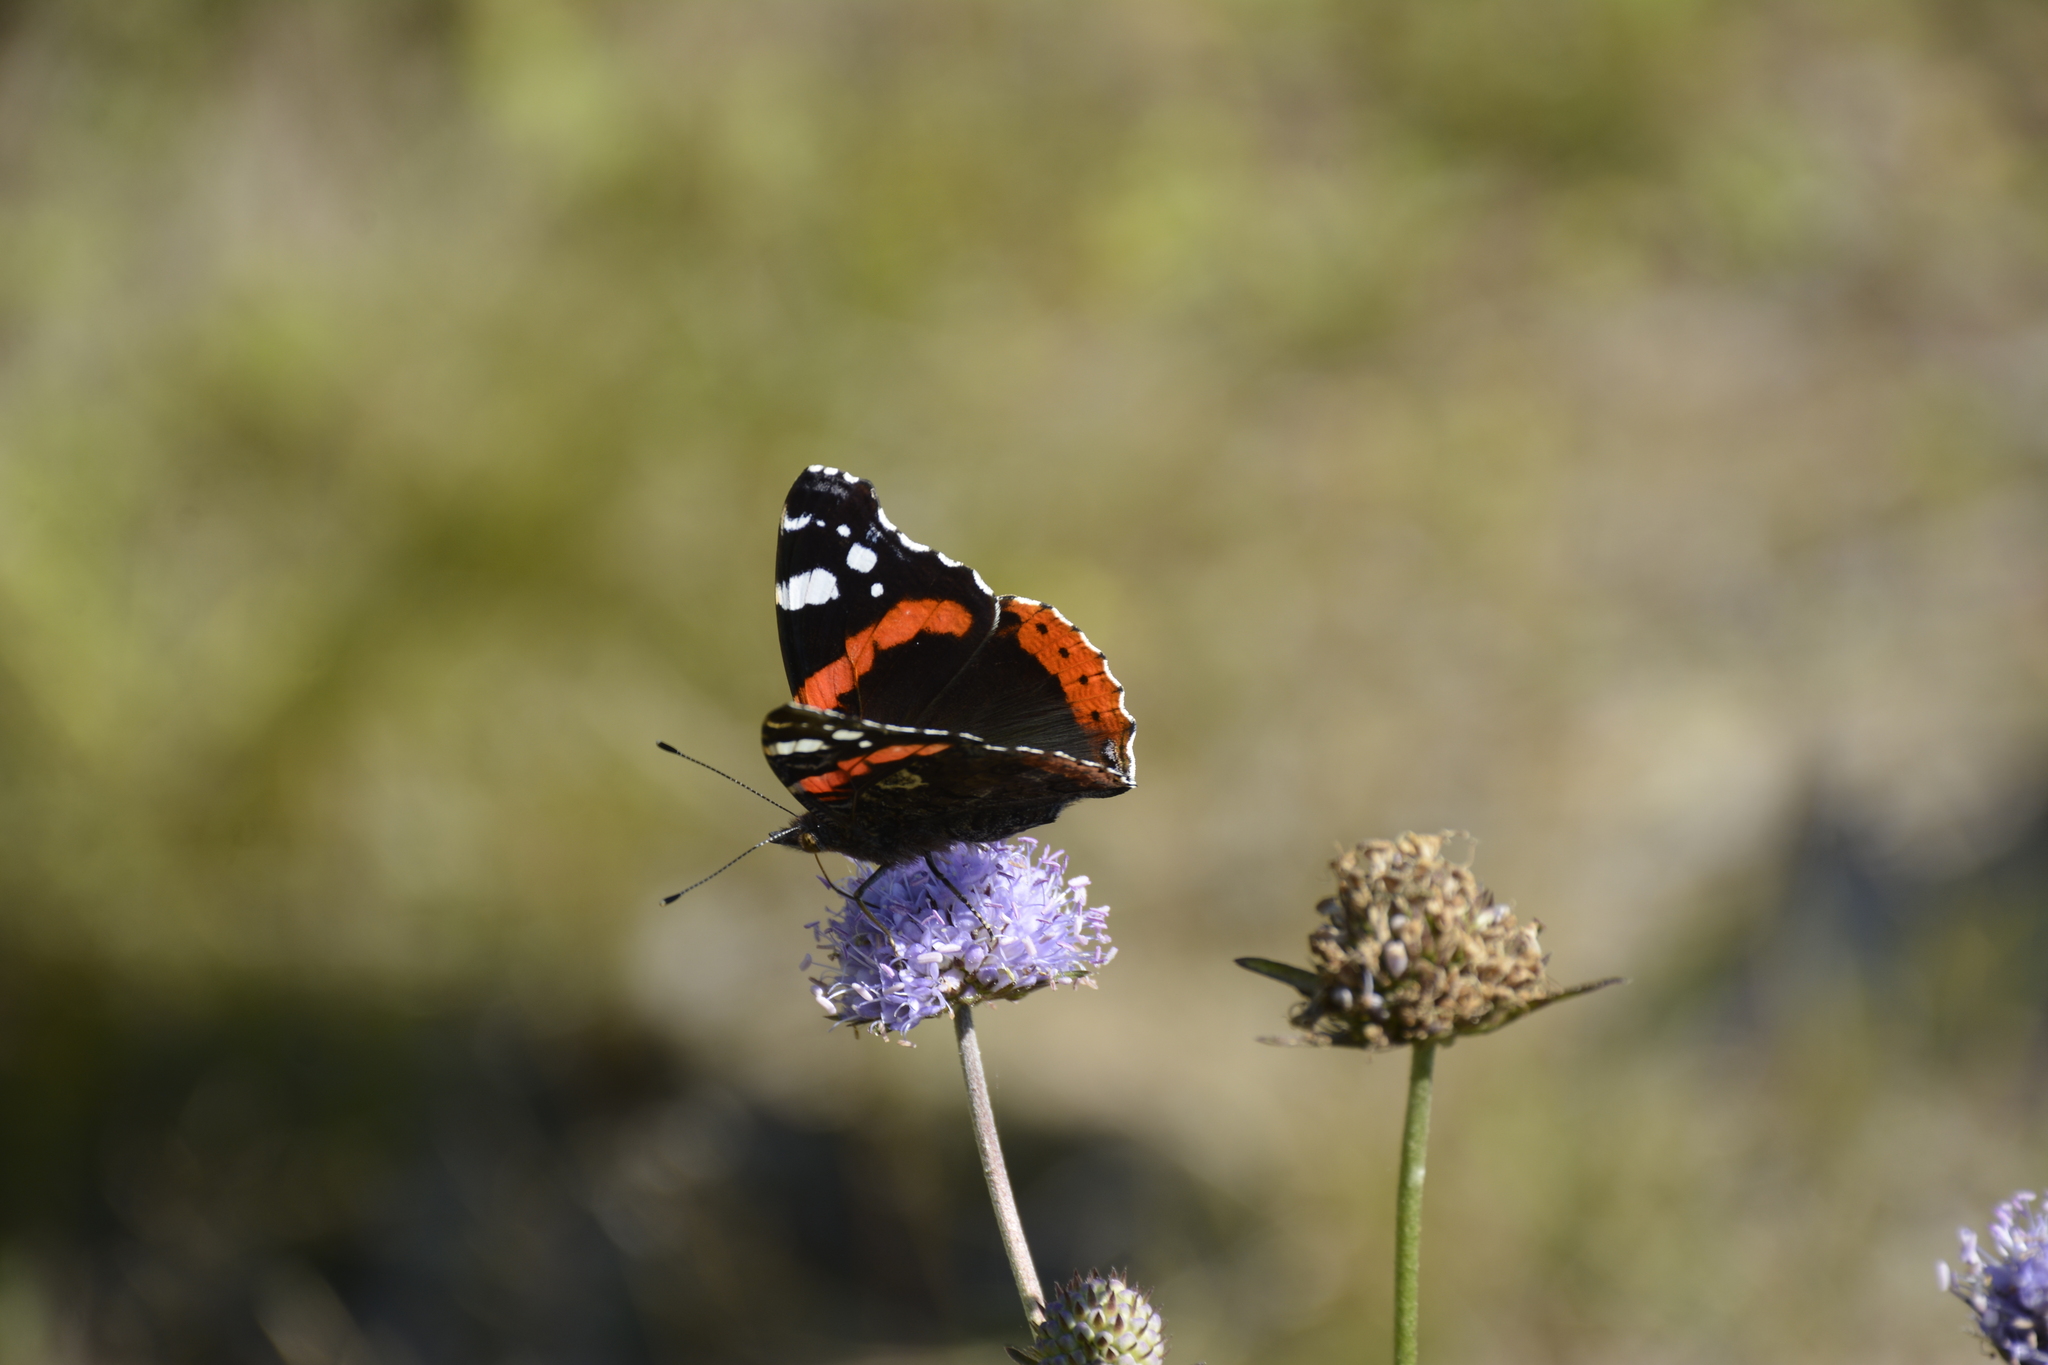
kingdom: Animalia
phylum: Arthropoda
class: Insecta
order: Lepidoptera
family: Nymphalidae
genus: Vanessa
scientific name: Vanessa atalanta
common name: Red admiral
